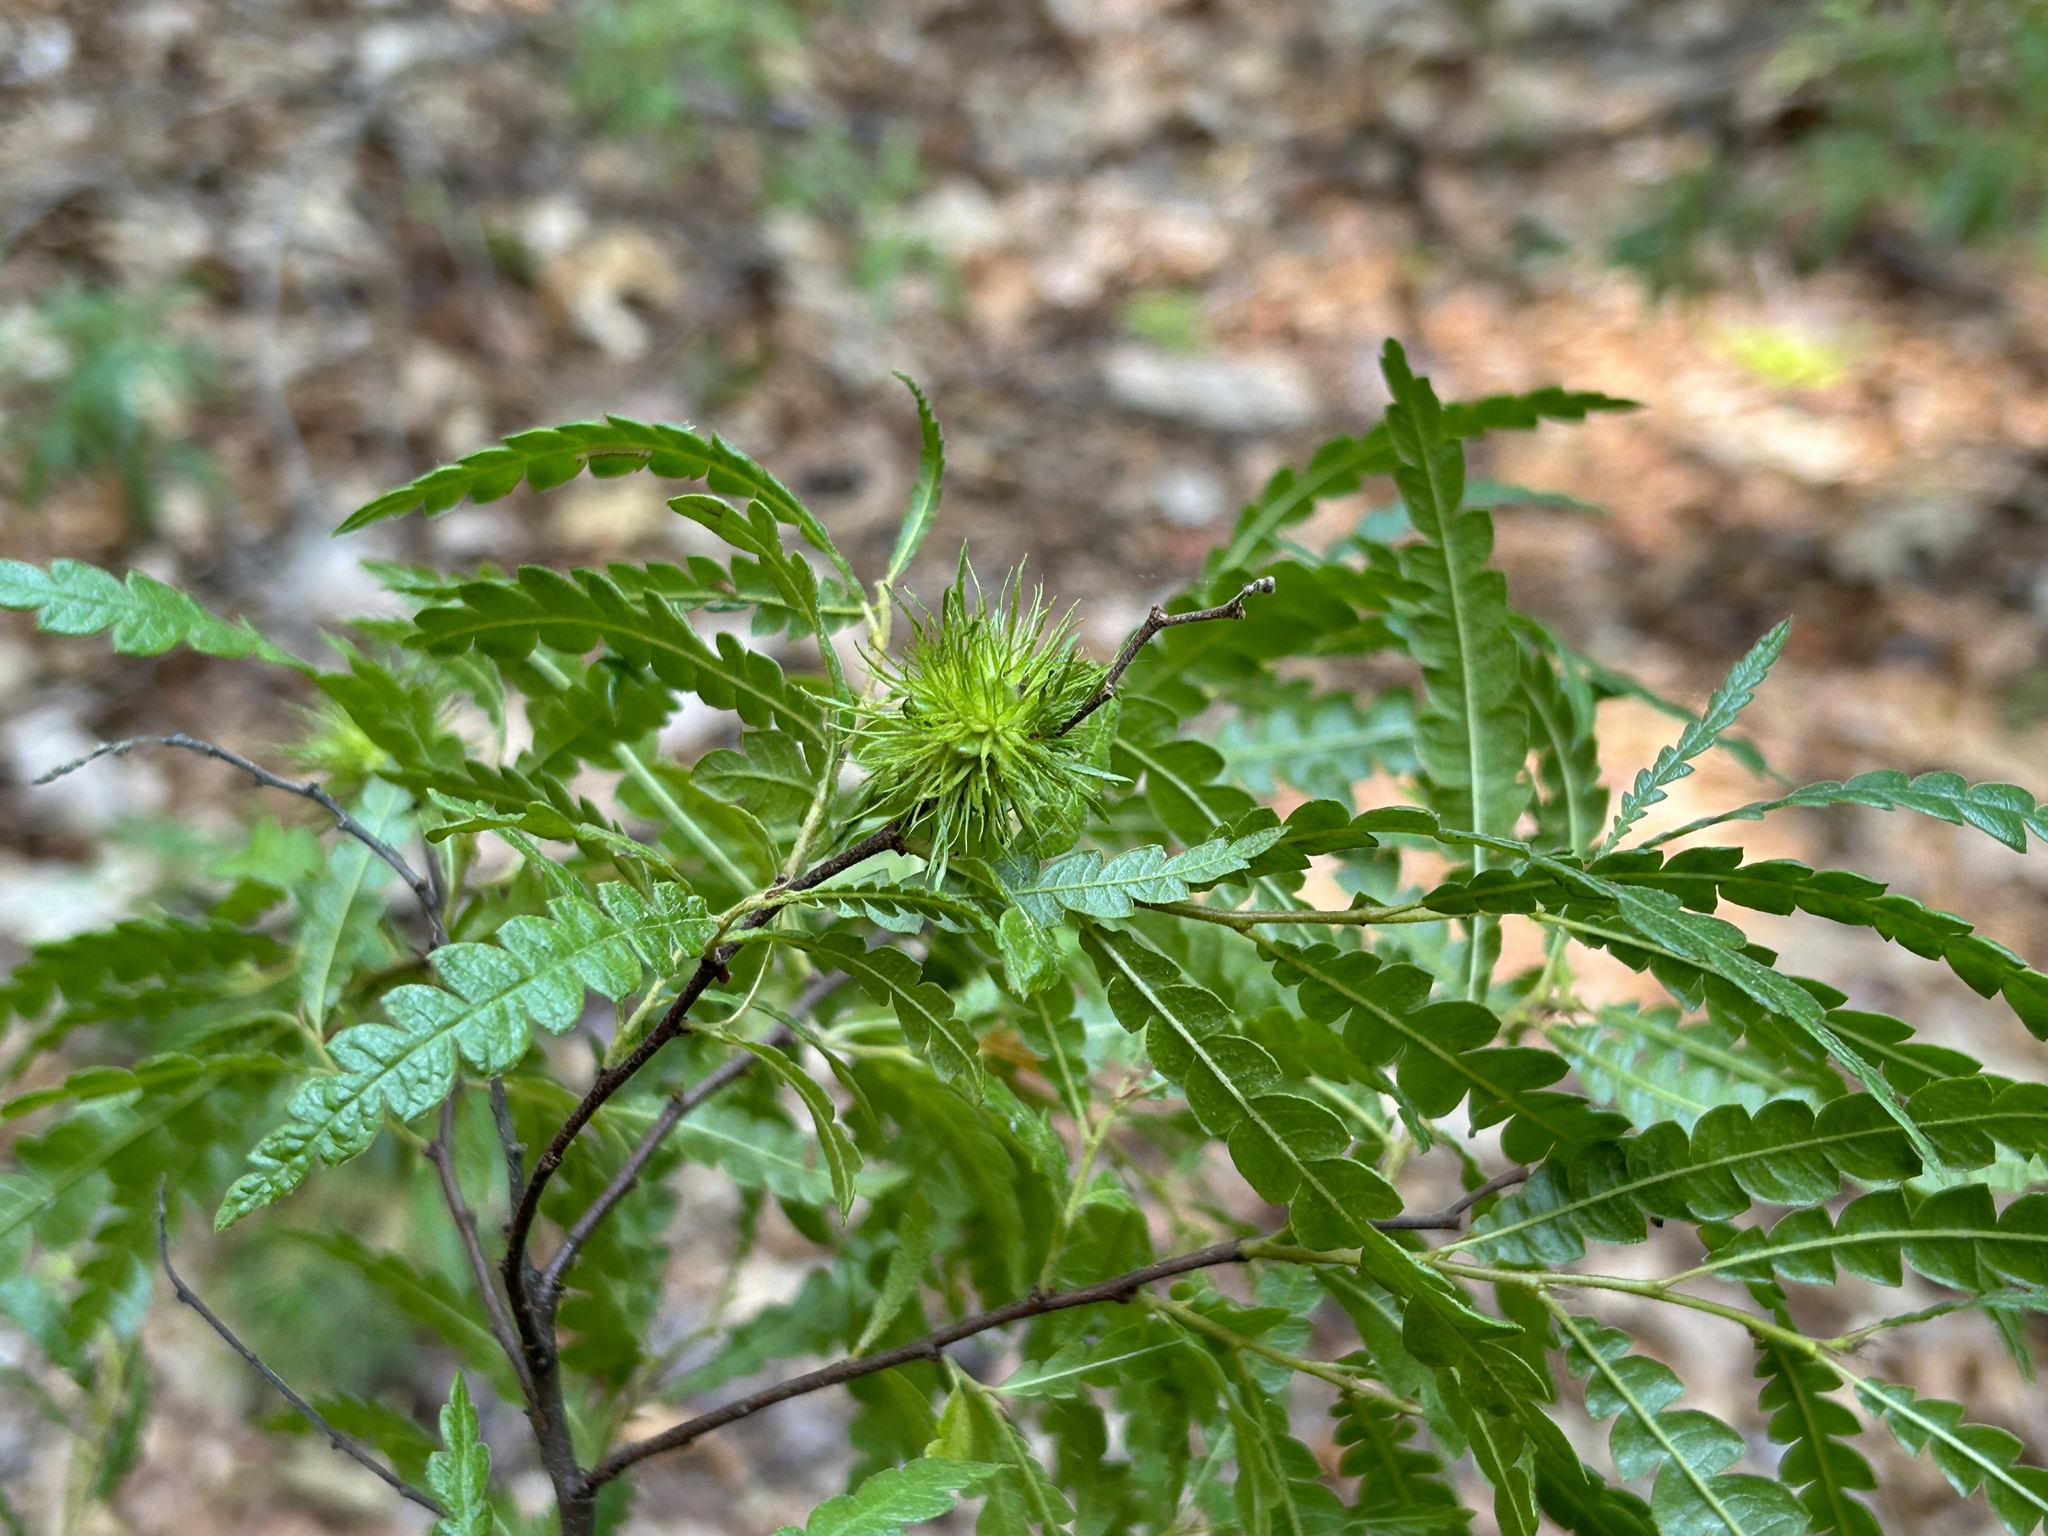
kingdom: Plantae
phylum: Tracheophyta
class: Magnoliopsida
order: Fagales
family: Myricaceae
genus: Comptonia
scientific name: Comptonia peregrina
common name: Sweet-fern
